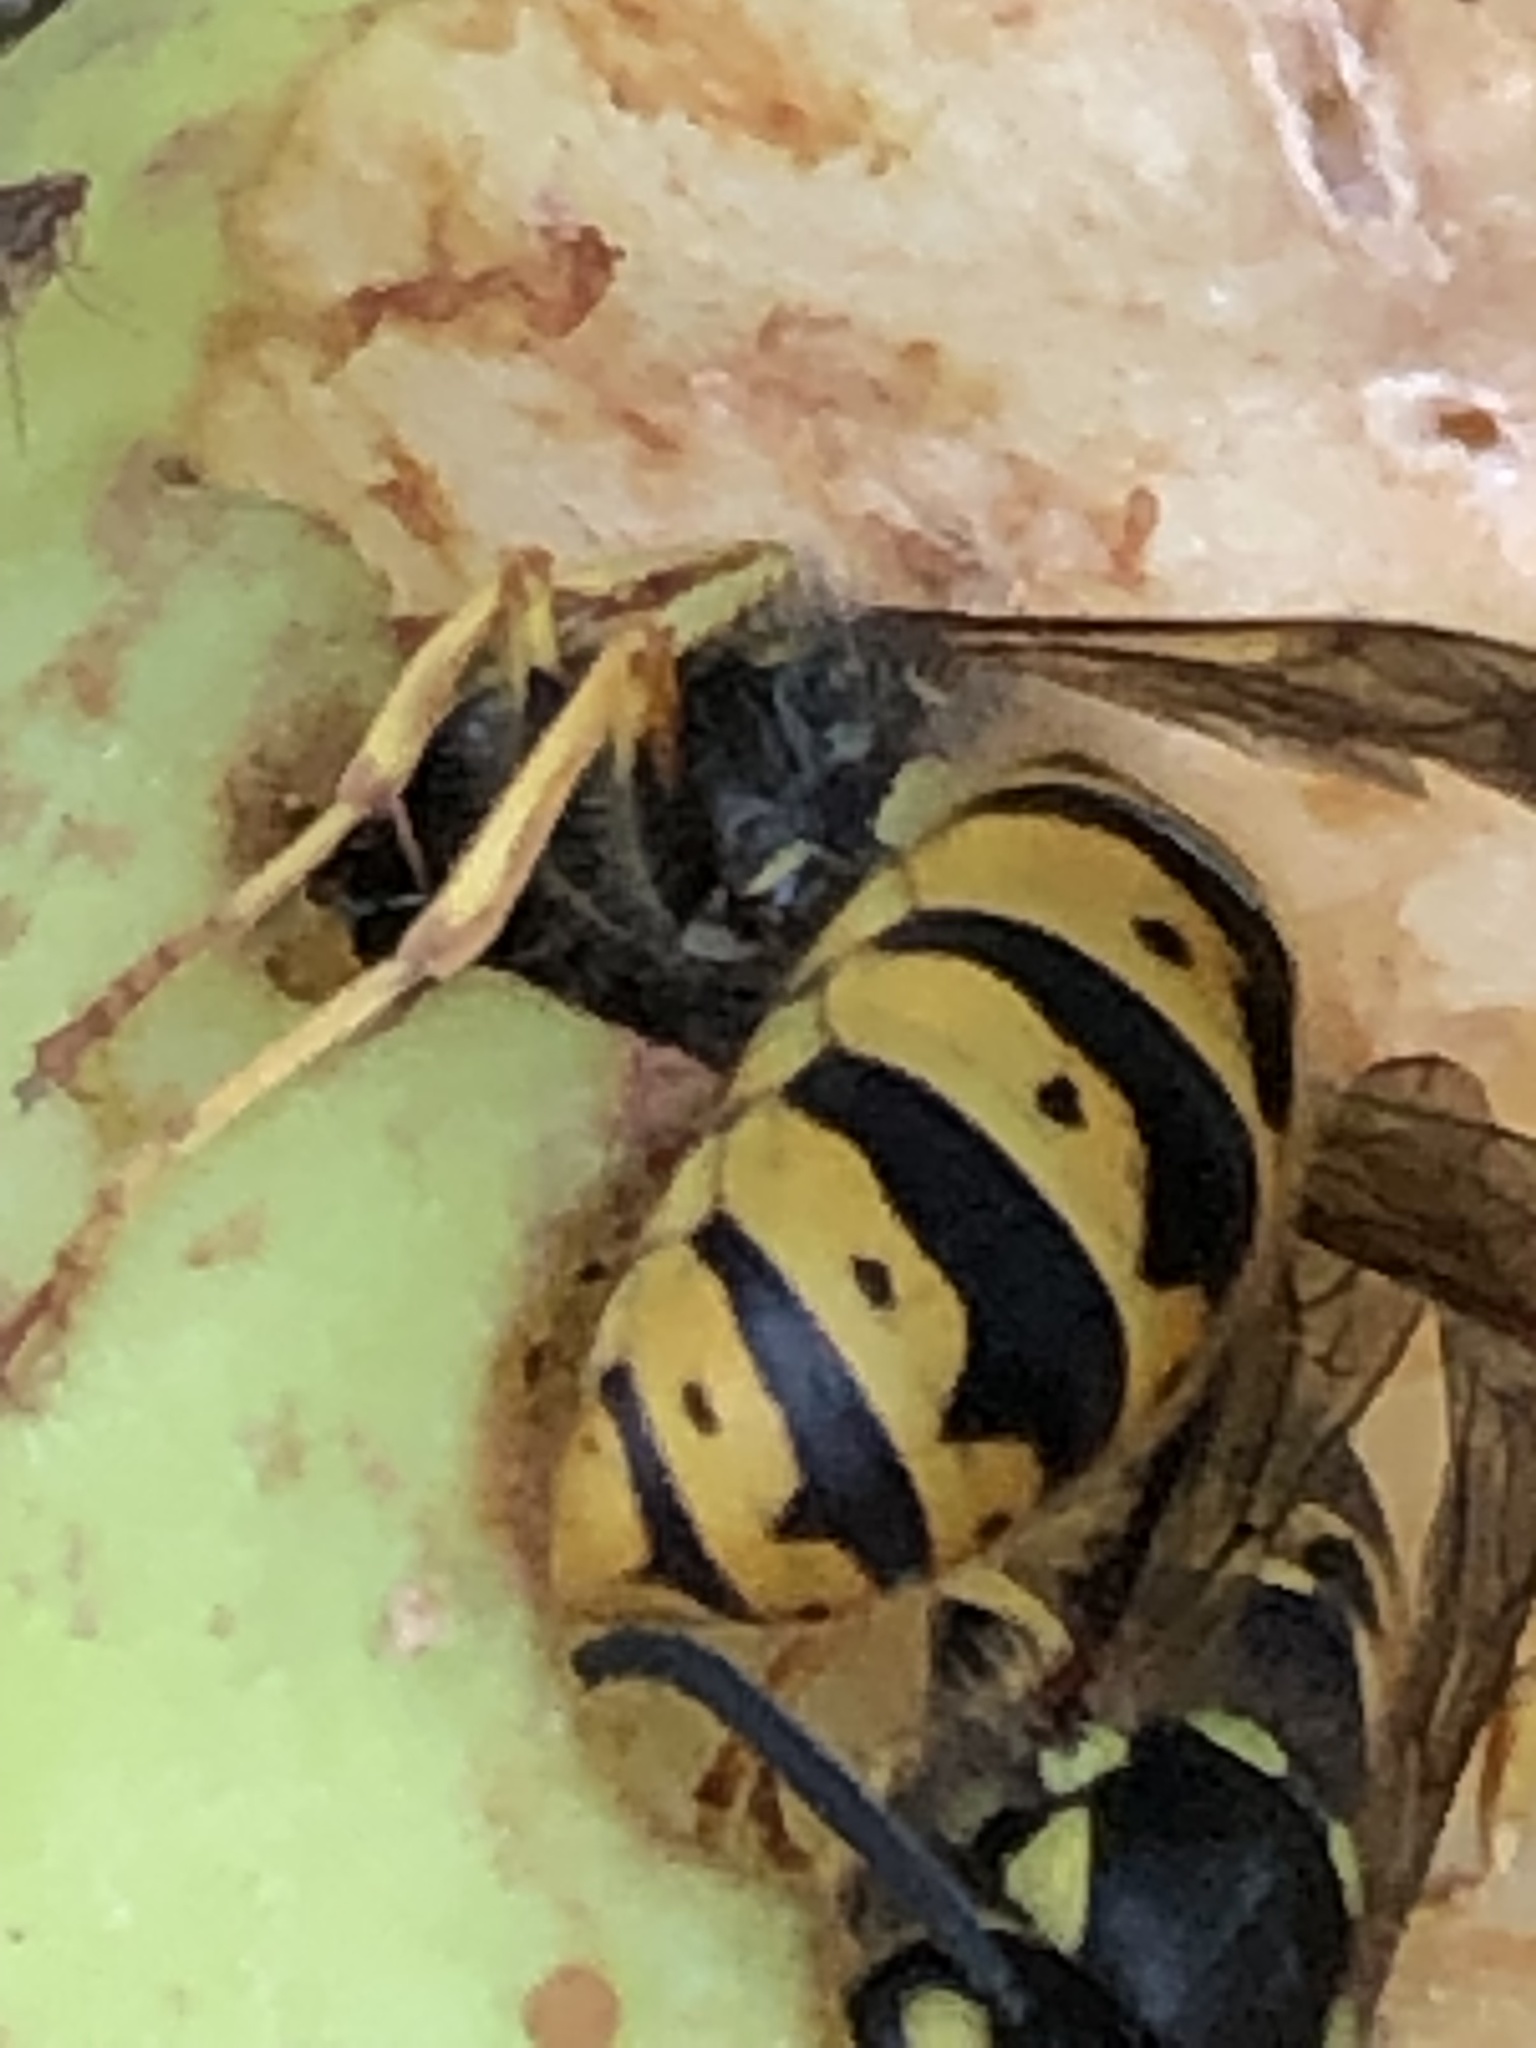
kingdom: Animalia
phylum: Arthropoda
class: Insecta
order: Hymenoptera
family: Vespidae
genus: Vespula
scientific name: Vespula germanica
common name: German wasp
